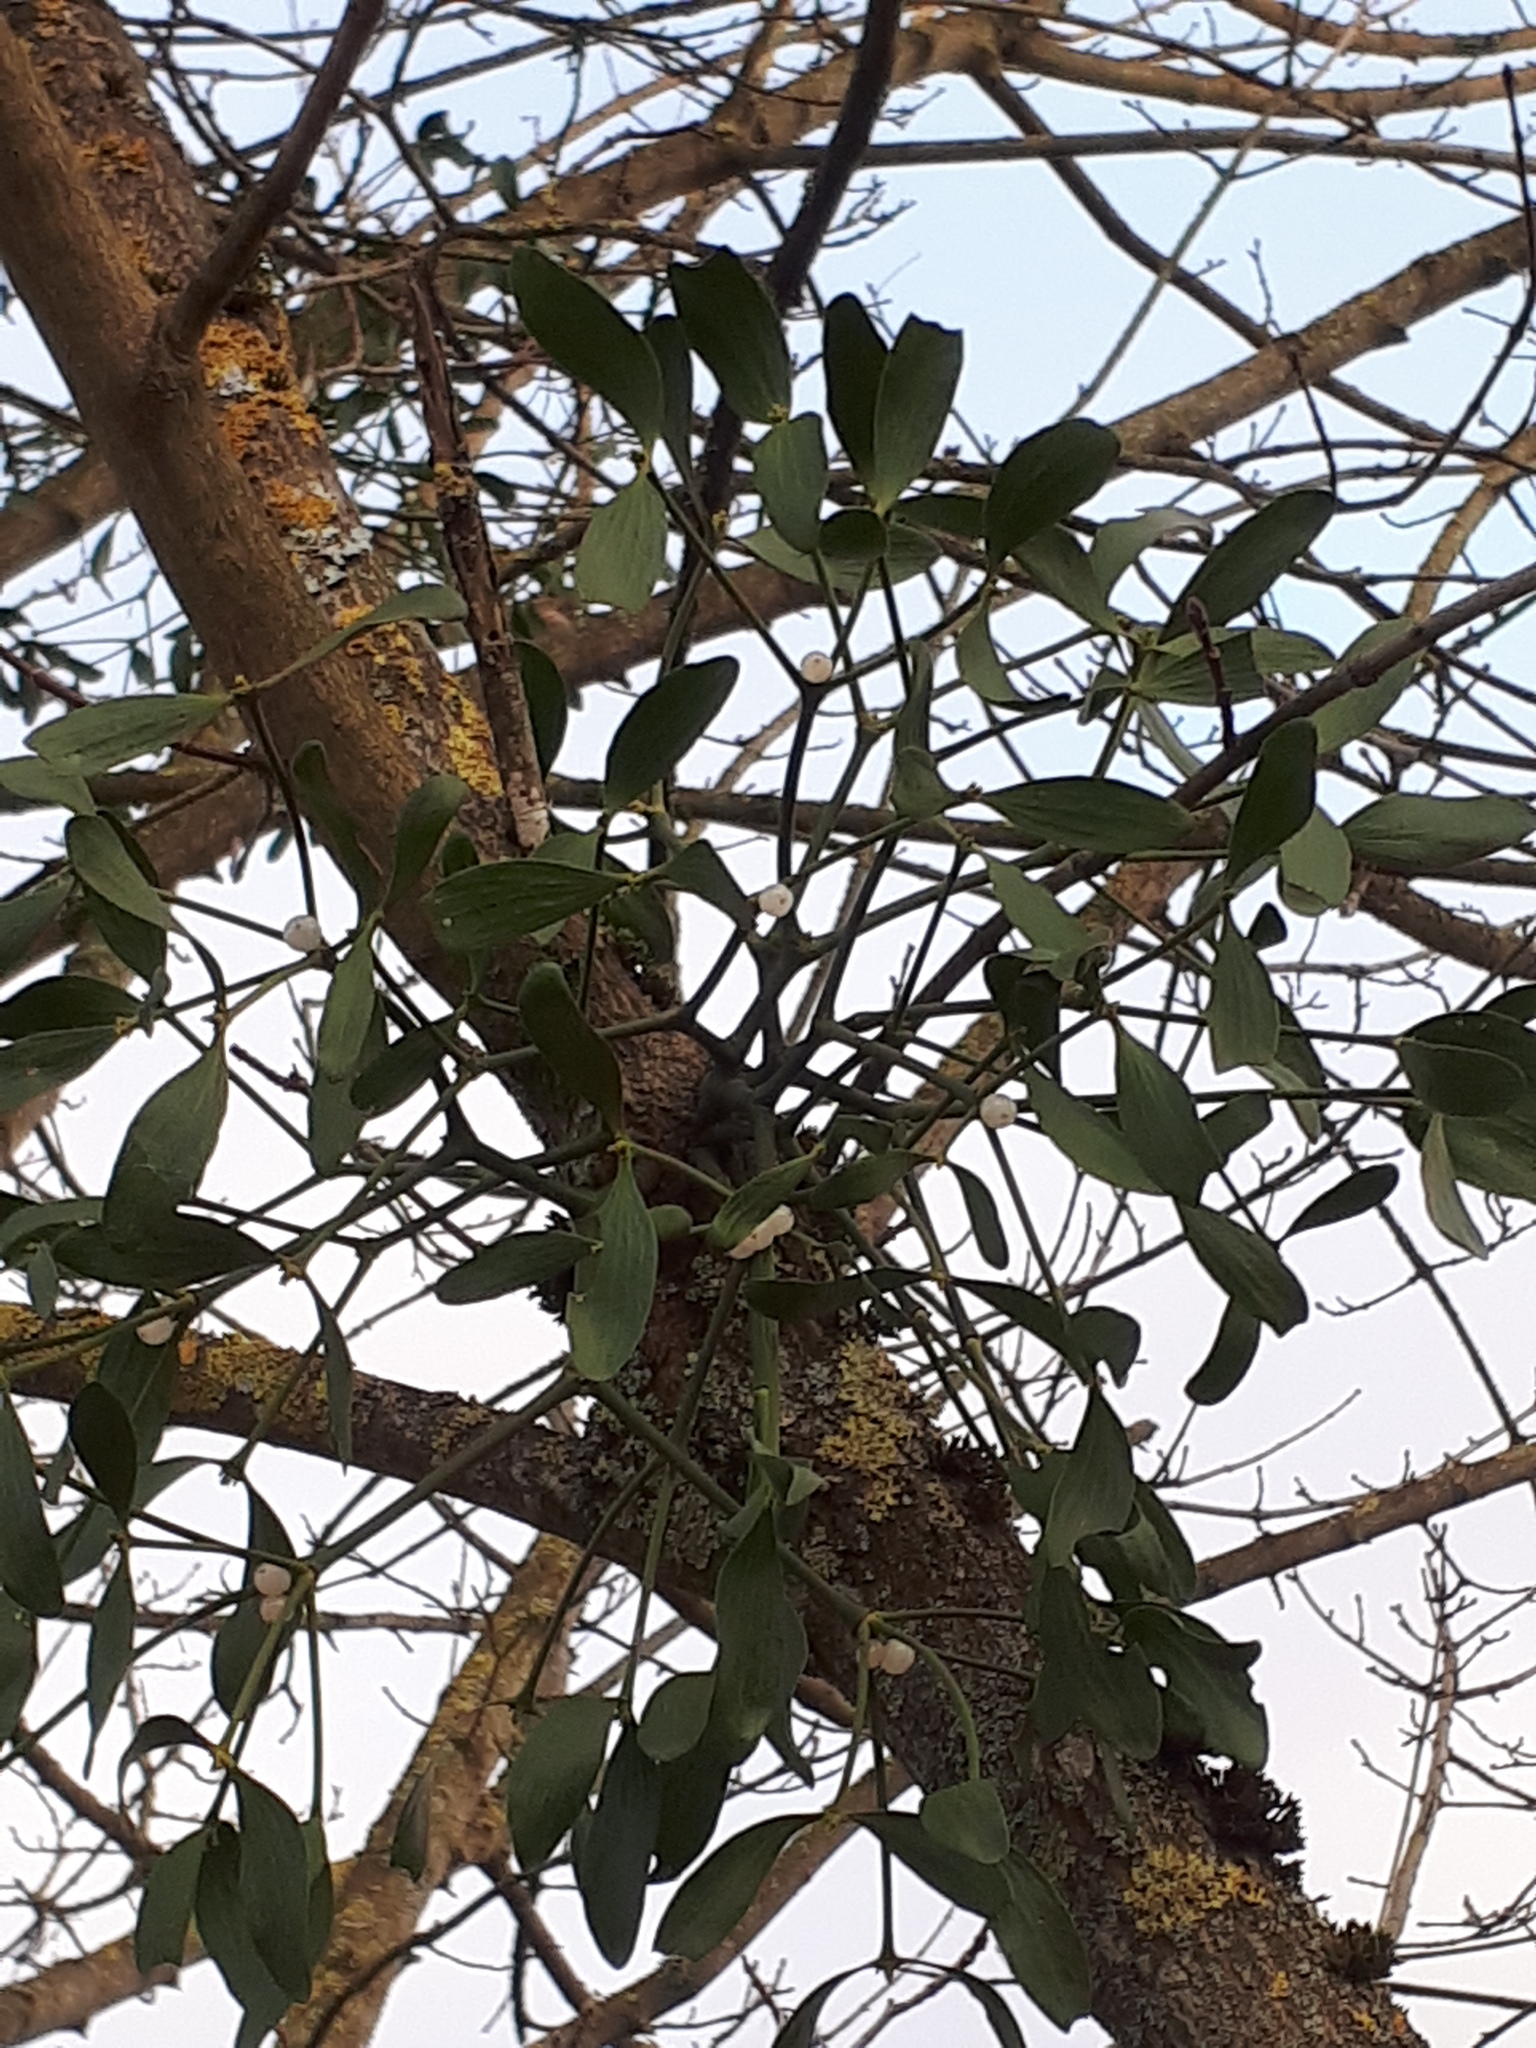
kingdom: Plantae
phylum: Tracheophyta
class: Magnoliopsida
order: Santalales
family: Viscaceae
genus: Viscum
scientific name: Viscum album
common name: Mistletoe
